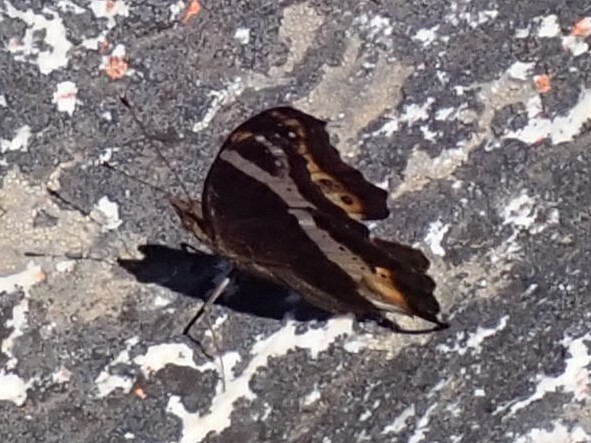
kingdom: Animalia
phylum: Arthropoda
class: Insecta
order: Lepidoptera
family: Nymphalidae
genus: Junonia
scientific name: Junonia archesia
